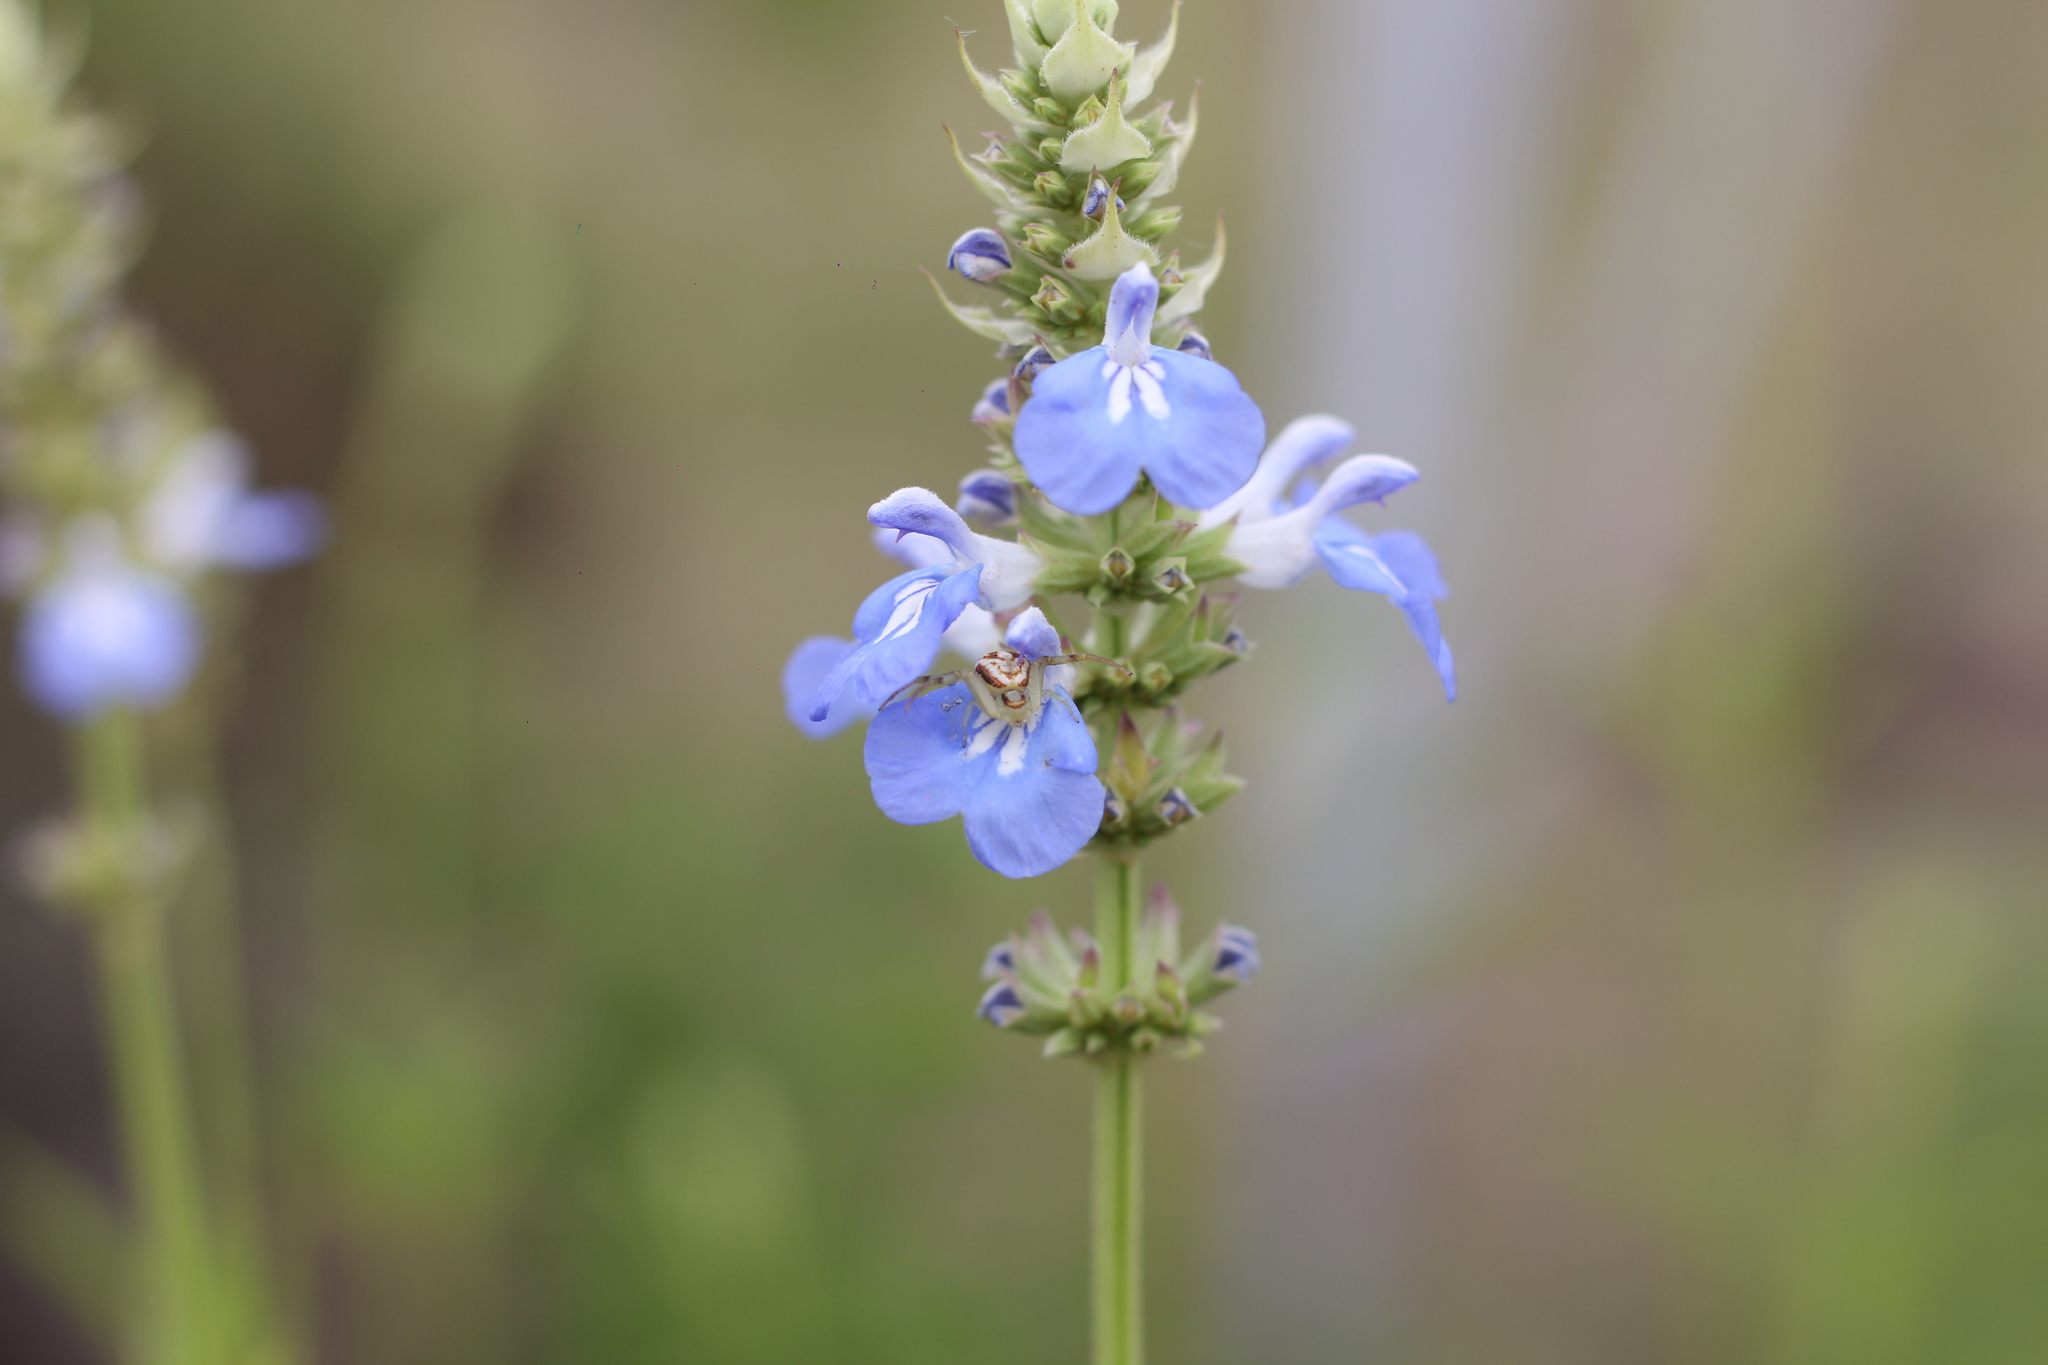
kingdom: Animalia
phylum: Arthropoda
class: Arachnida
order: Araneae
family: Thomisidae
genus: Misumenops
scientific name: Misumenops
